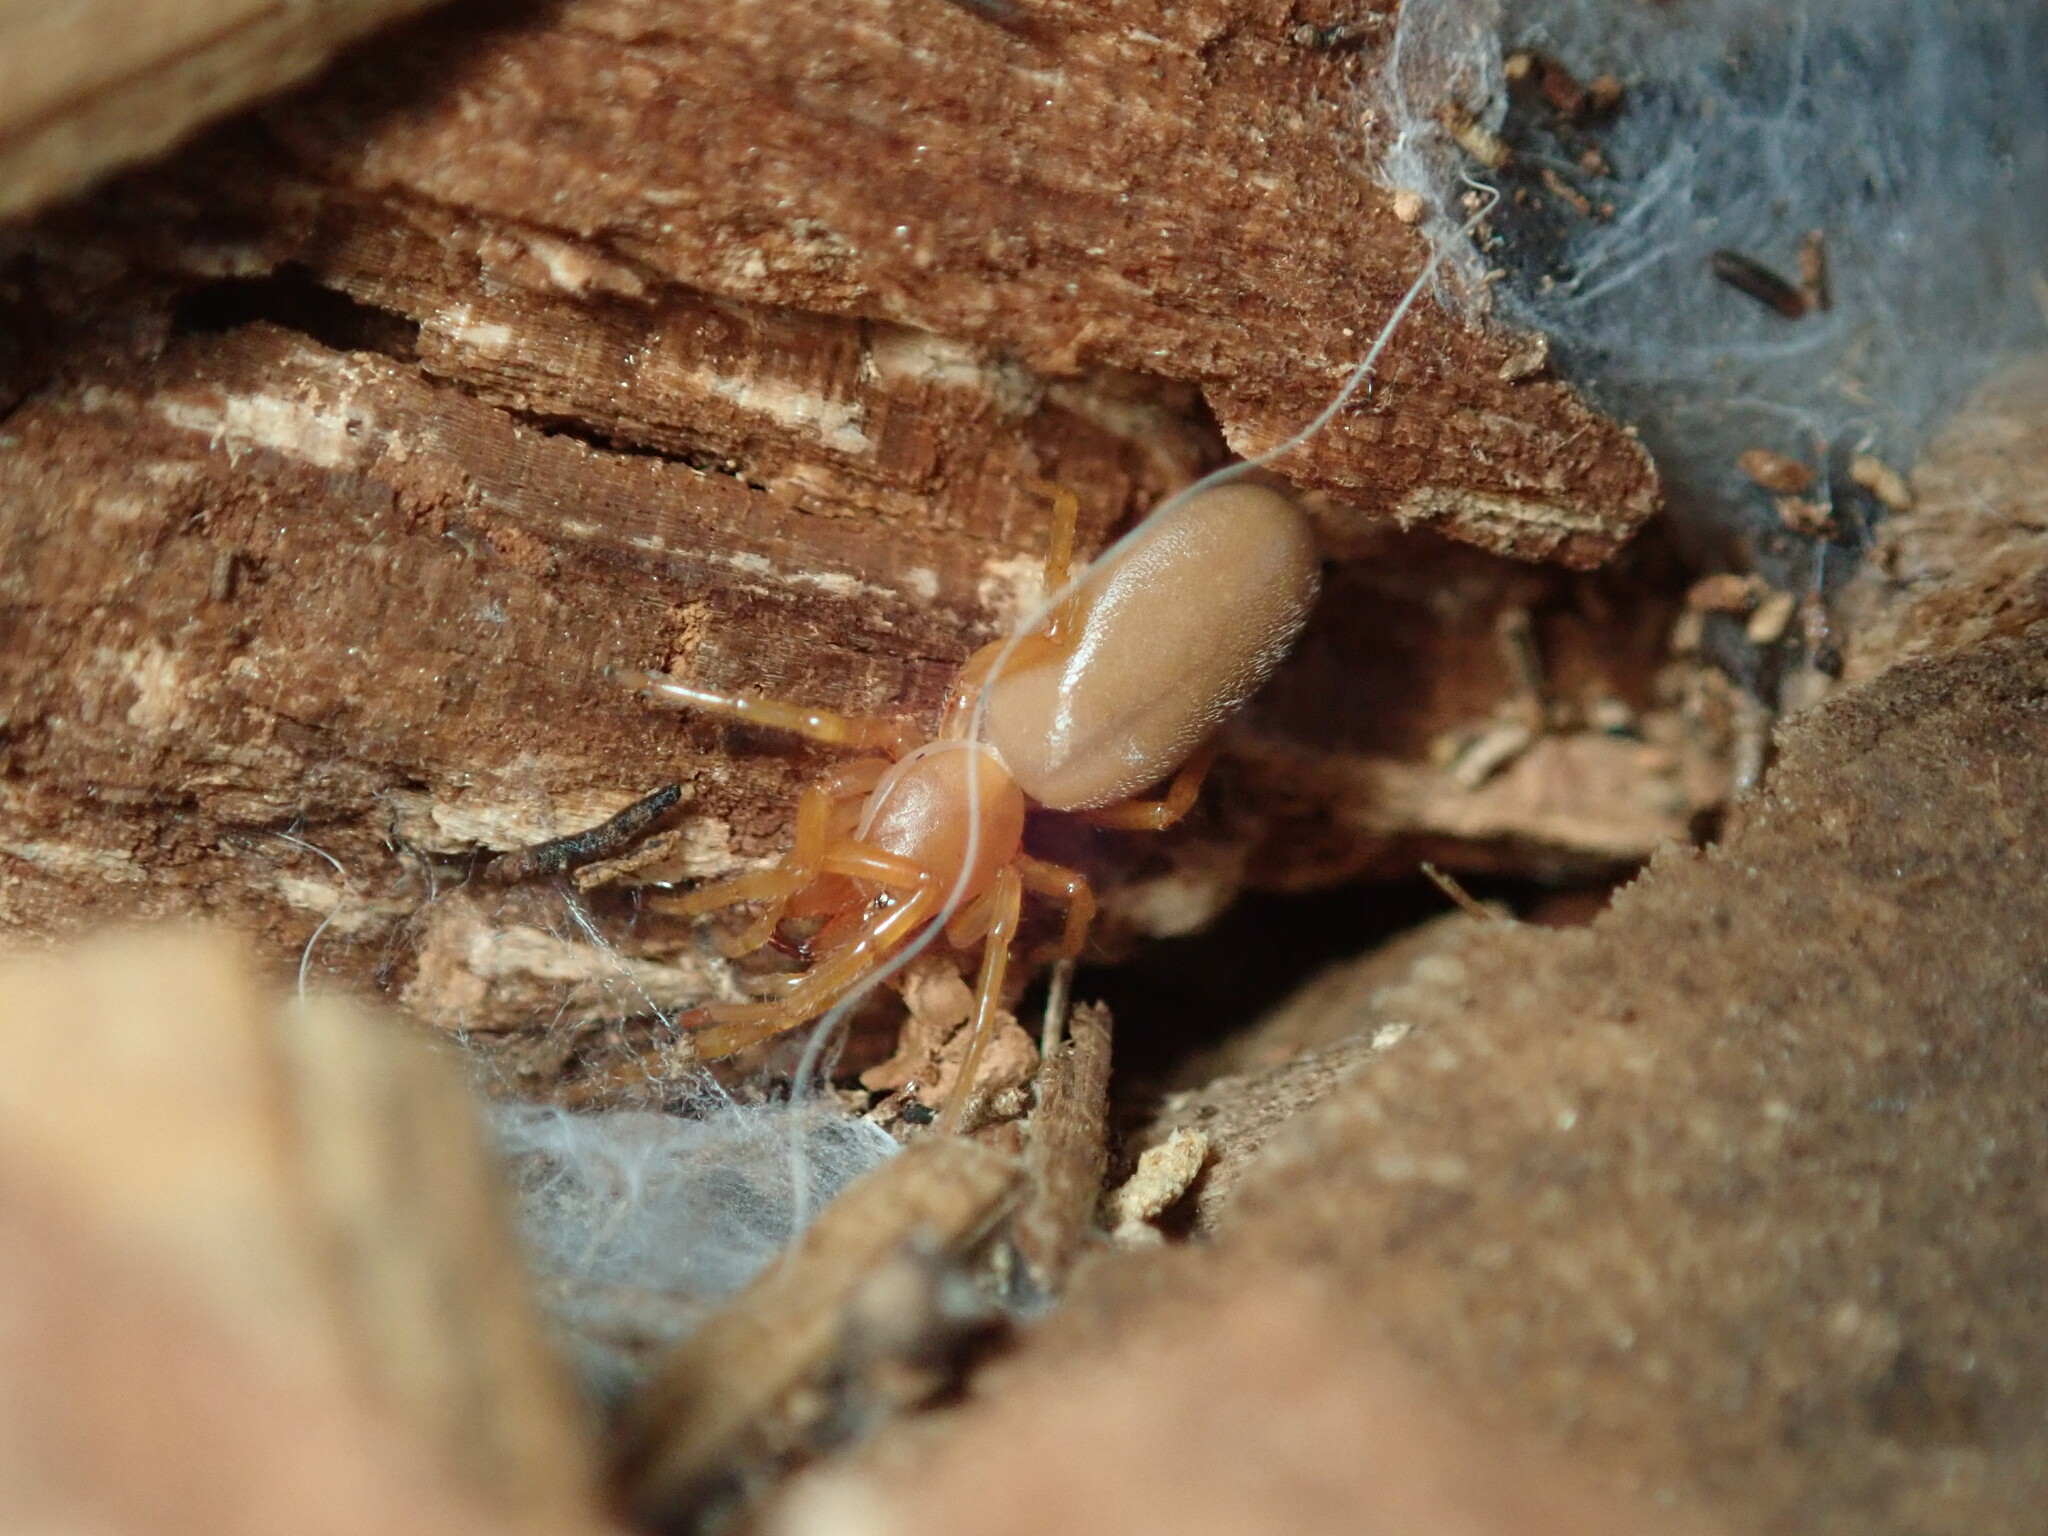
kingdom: Animalia
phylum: Arthropoda
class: Arachnida
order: Araneae
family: Dysderidae
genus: Dysdera
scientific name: Dysdera crocata
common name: Woodlouse spider
